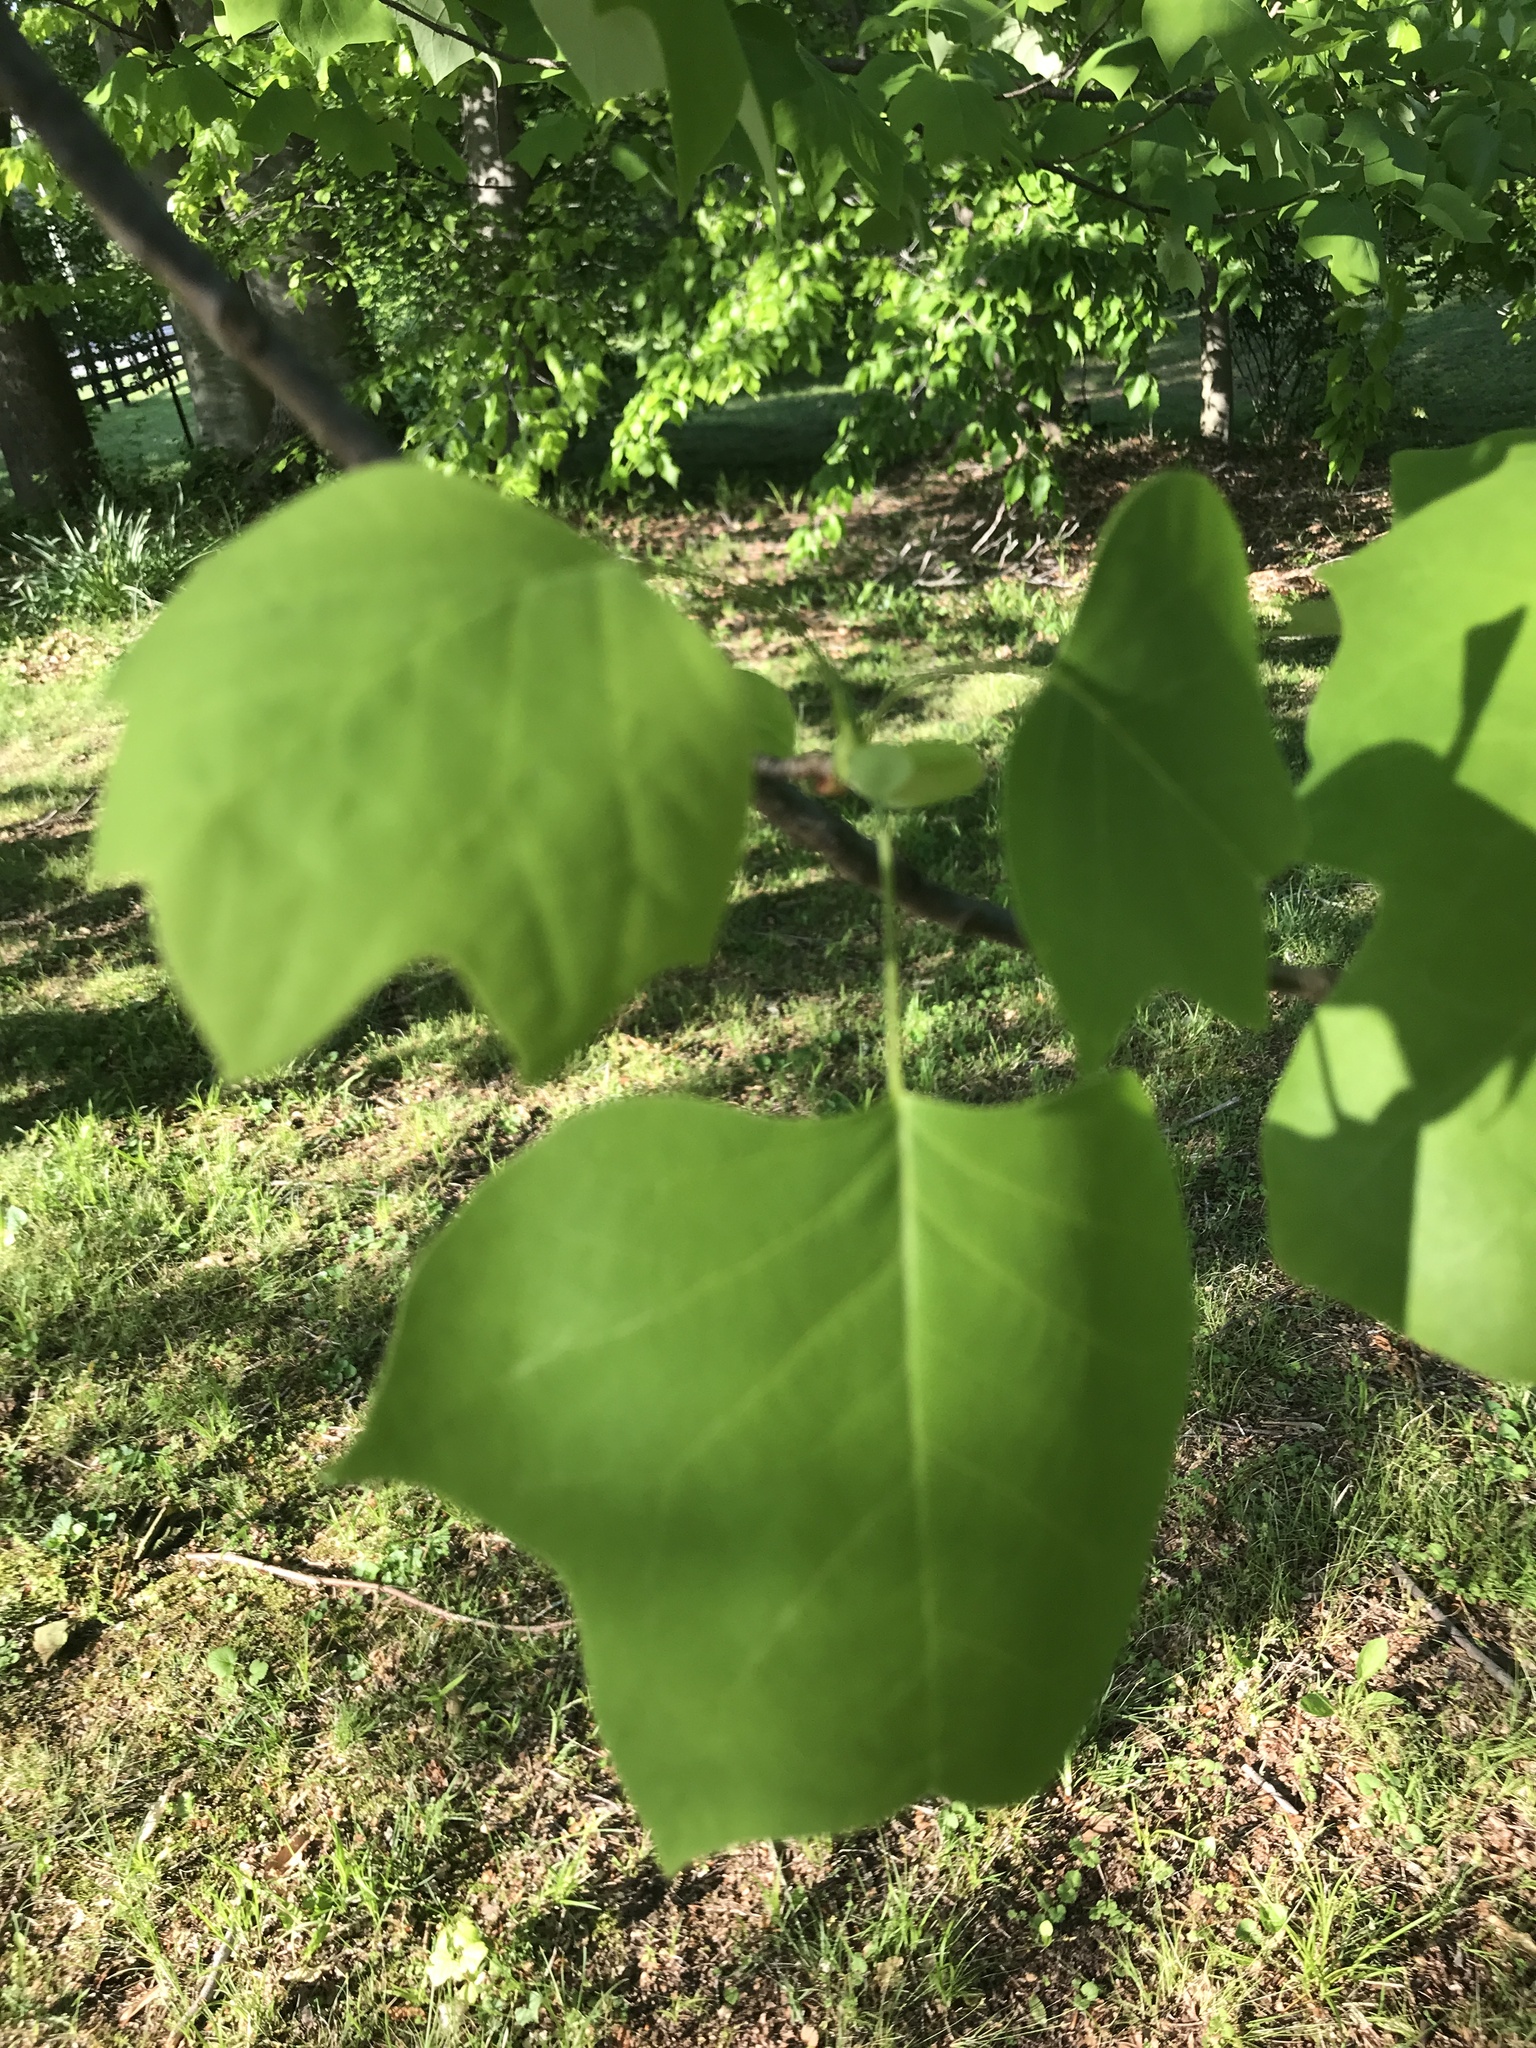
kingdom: Plantae
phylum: Tracheophyta
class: Magnoliopsida
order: Magnoliales
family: Magnoliaceae
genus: Liriodendron
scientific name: Liriodendron tulipifera
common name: Tulip tree
